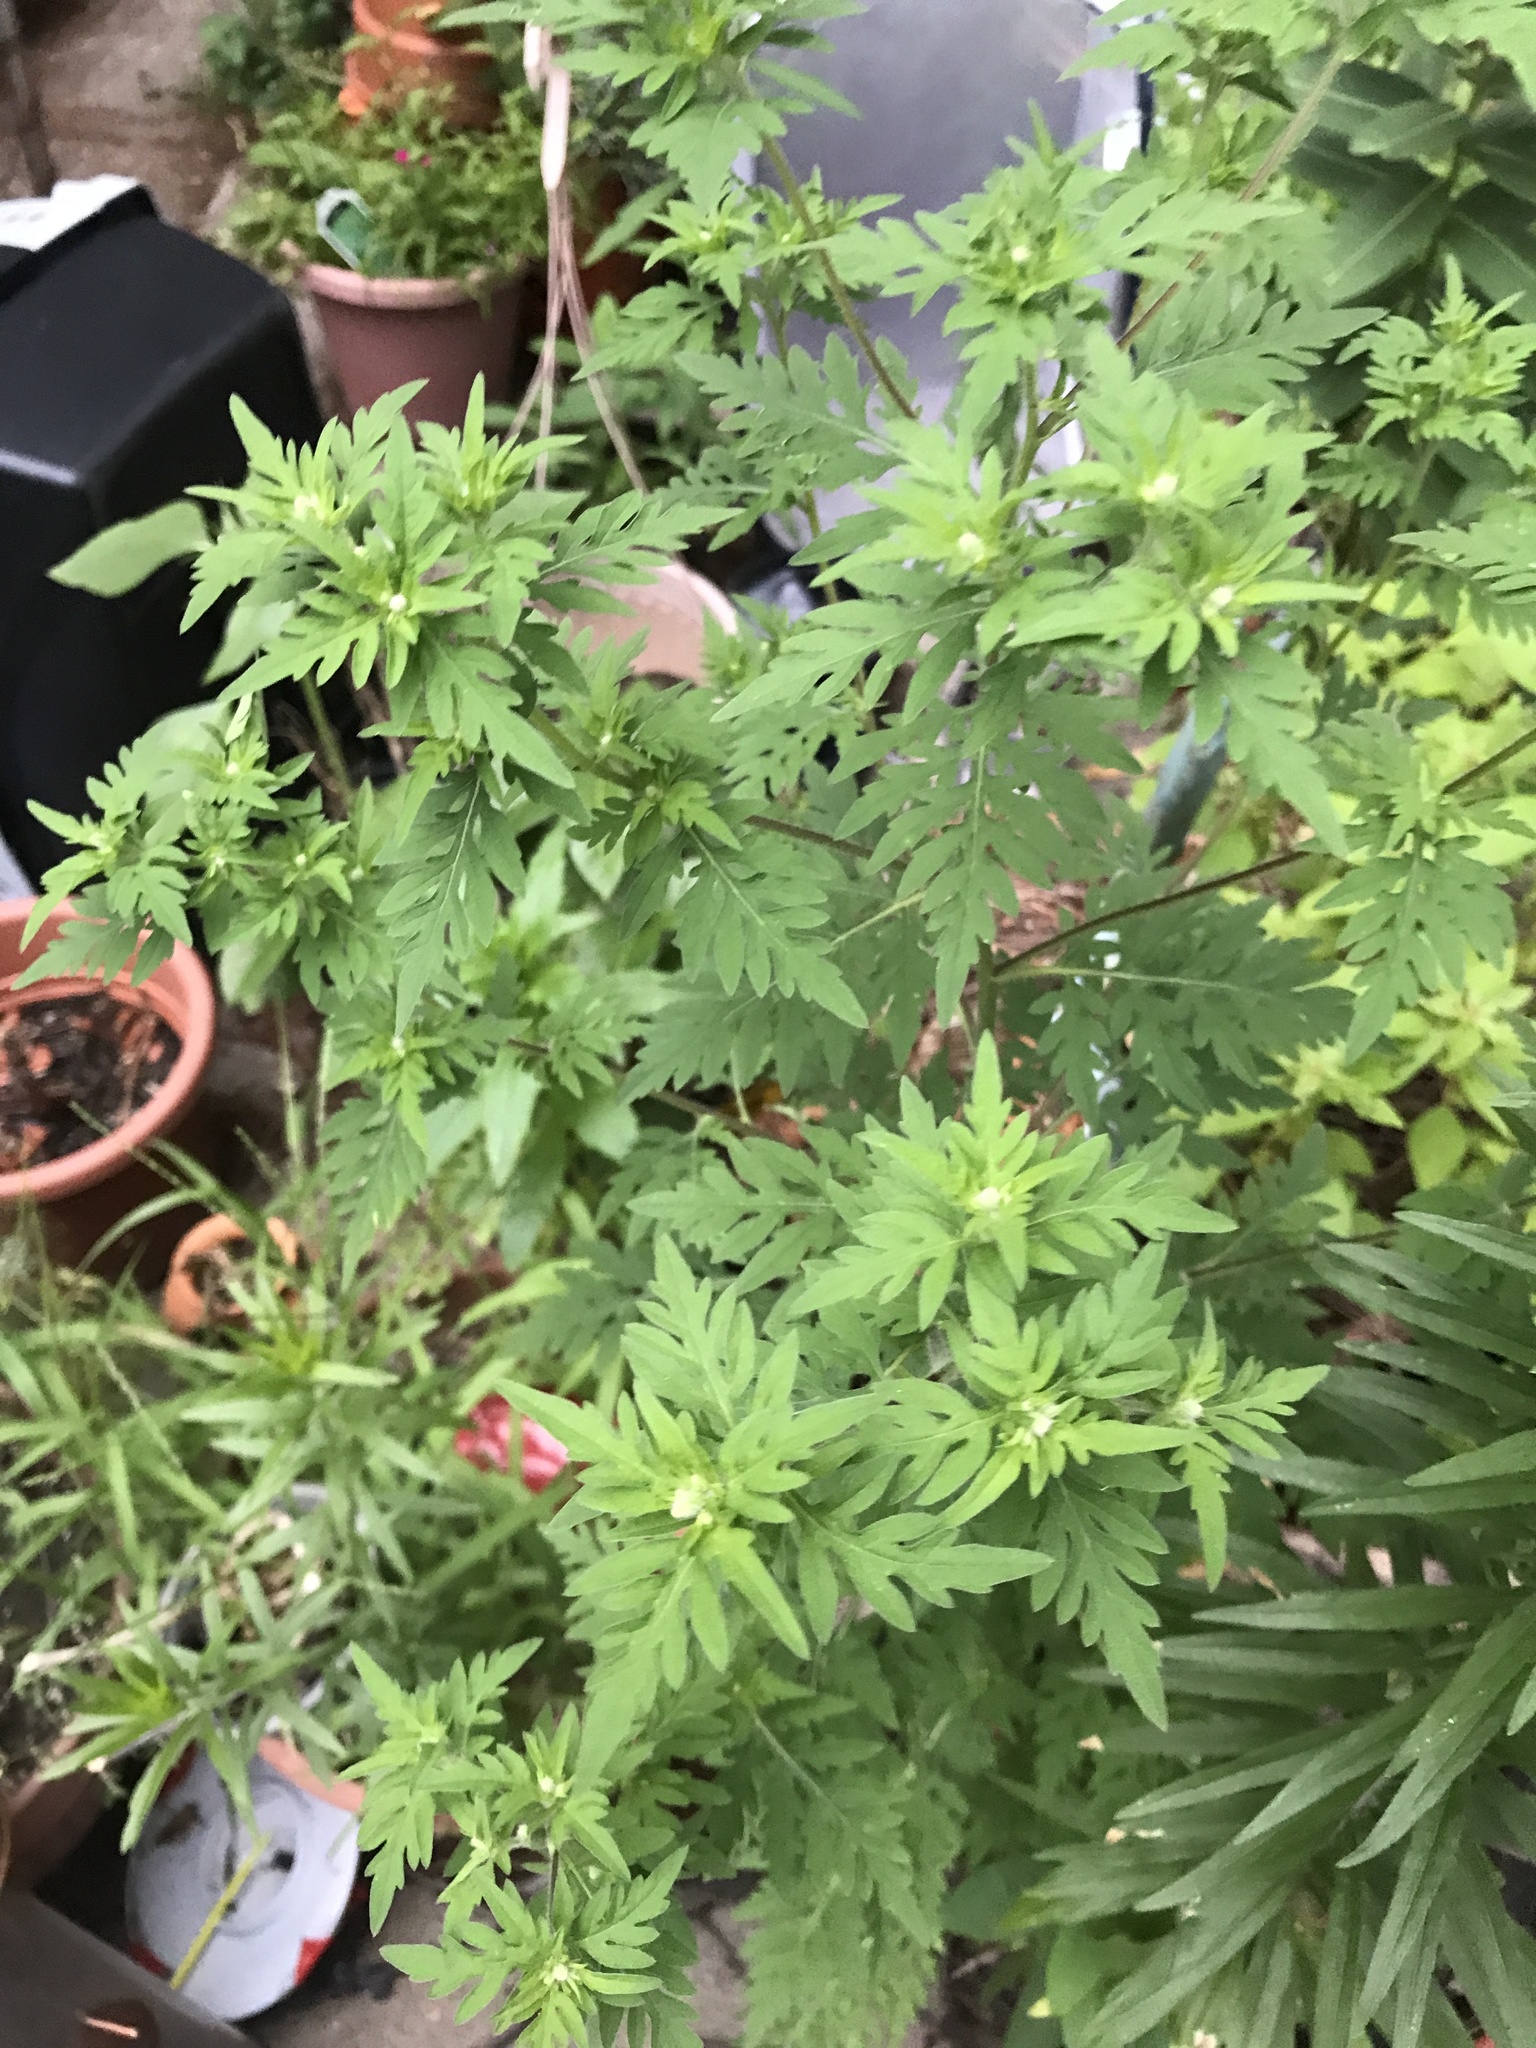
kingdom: Plantae
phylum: Tracheophyta
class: Magnoliopsida
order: Asterales
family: Asteraceae
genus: Ambrosia
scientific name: Ambrosia artemisiifolia
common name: Annual ragweed
